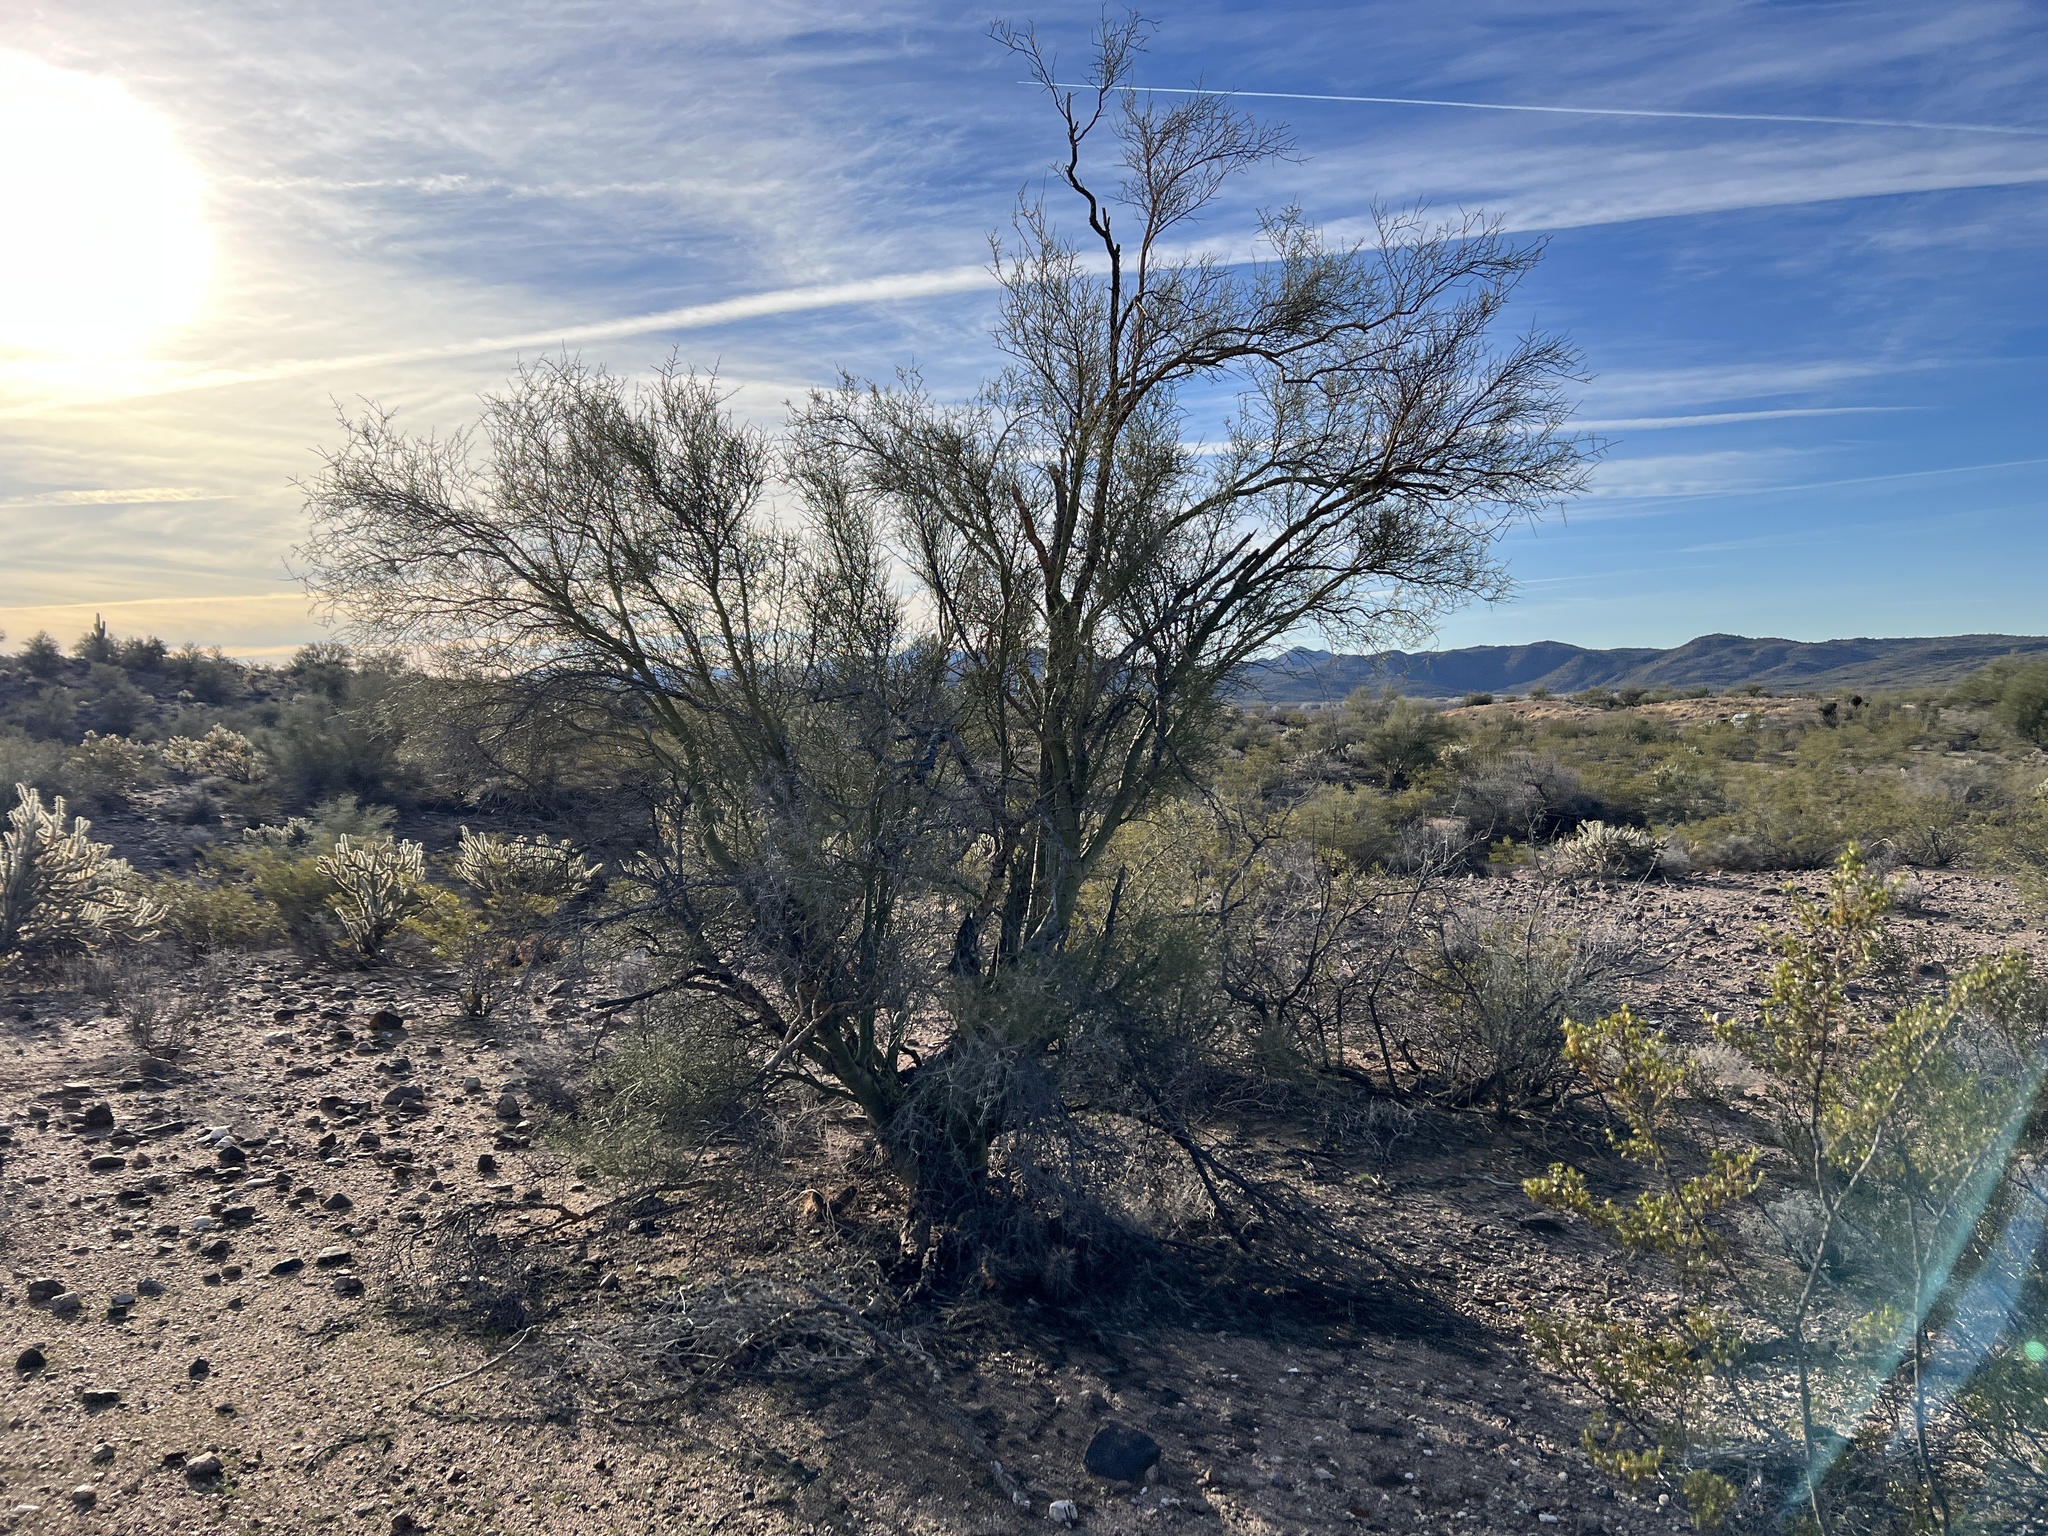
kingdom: Plantae
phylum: Tracheophyta
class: Magnoliopsida
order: Fabales
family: Fabaceae
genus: Parkinsonia
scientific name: Parkinsonia microphylla
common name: Yellow paloverde
